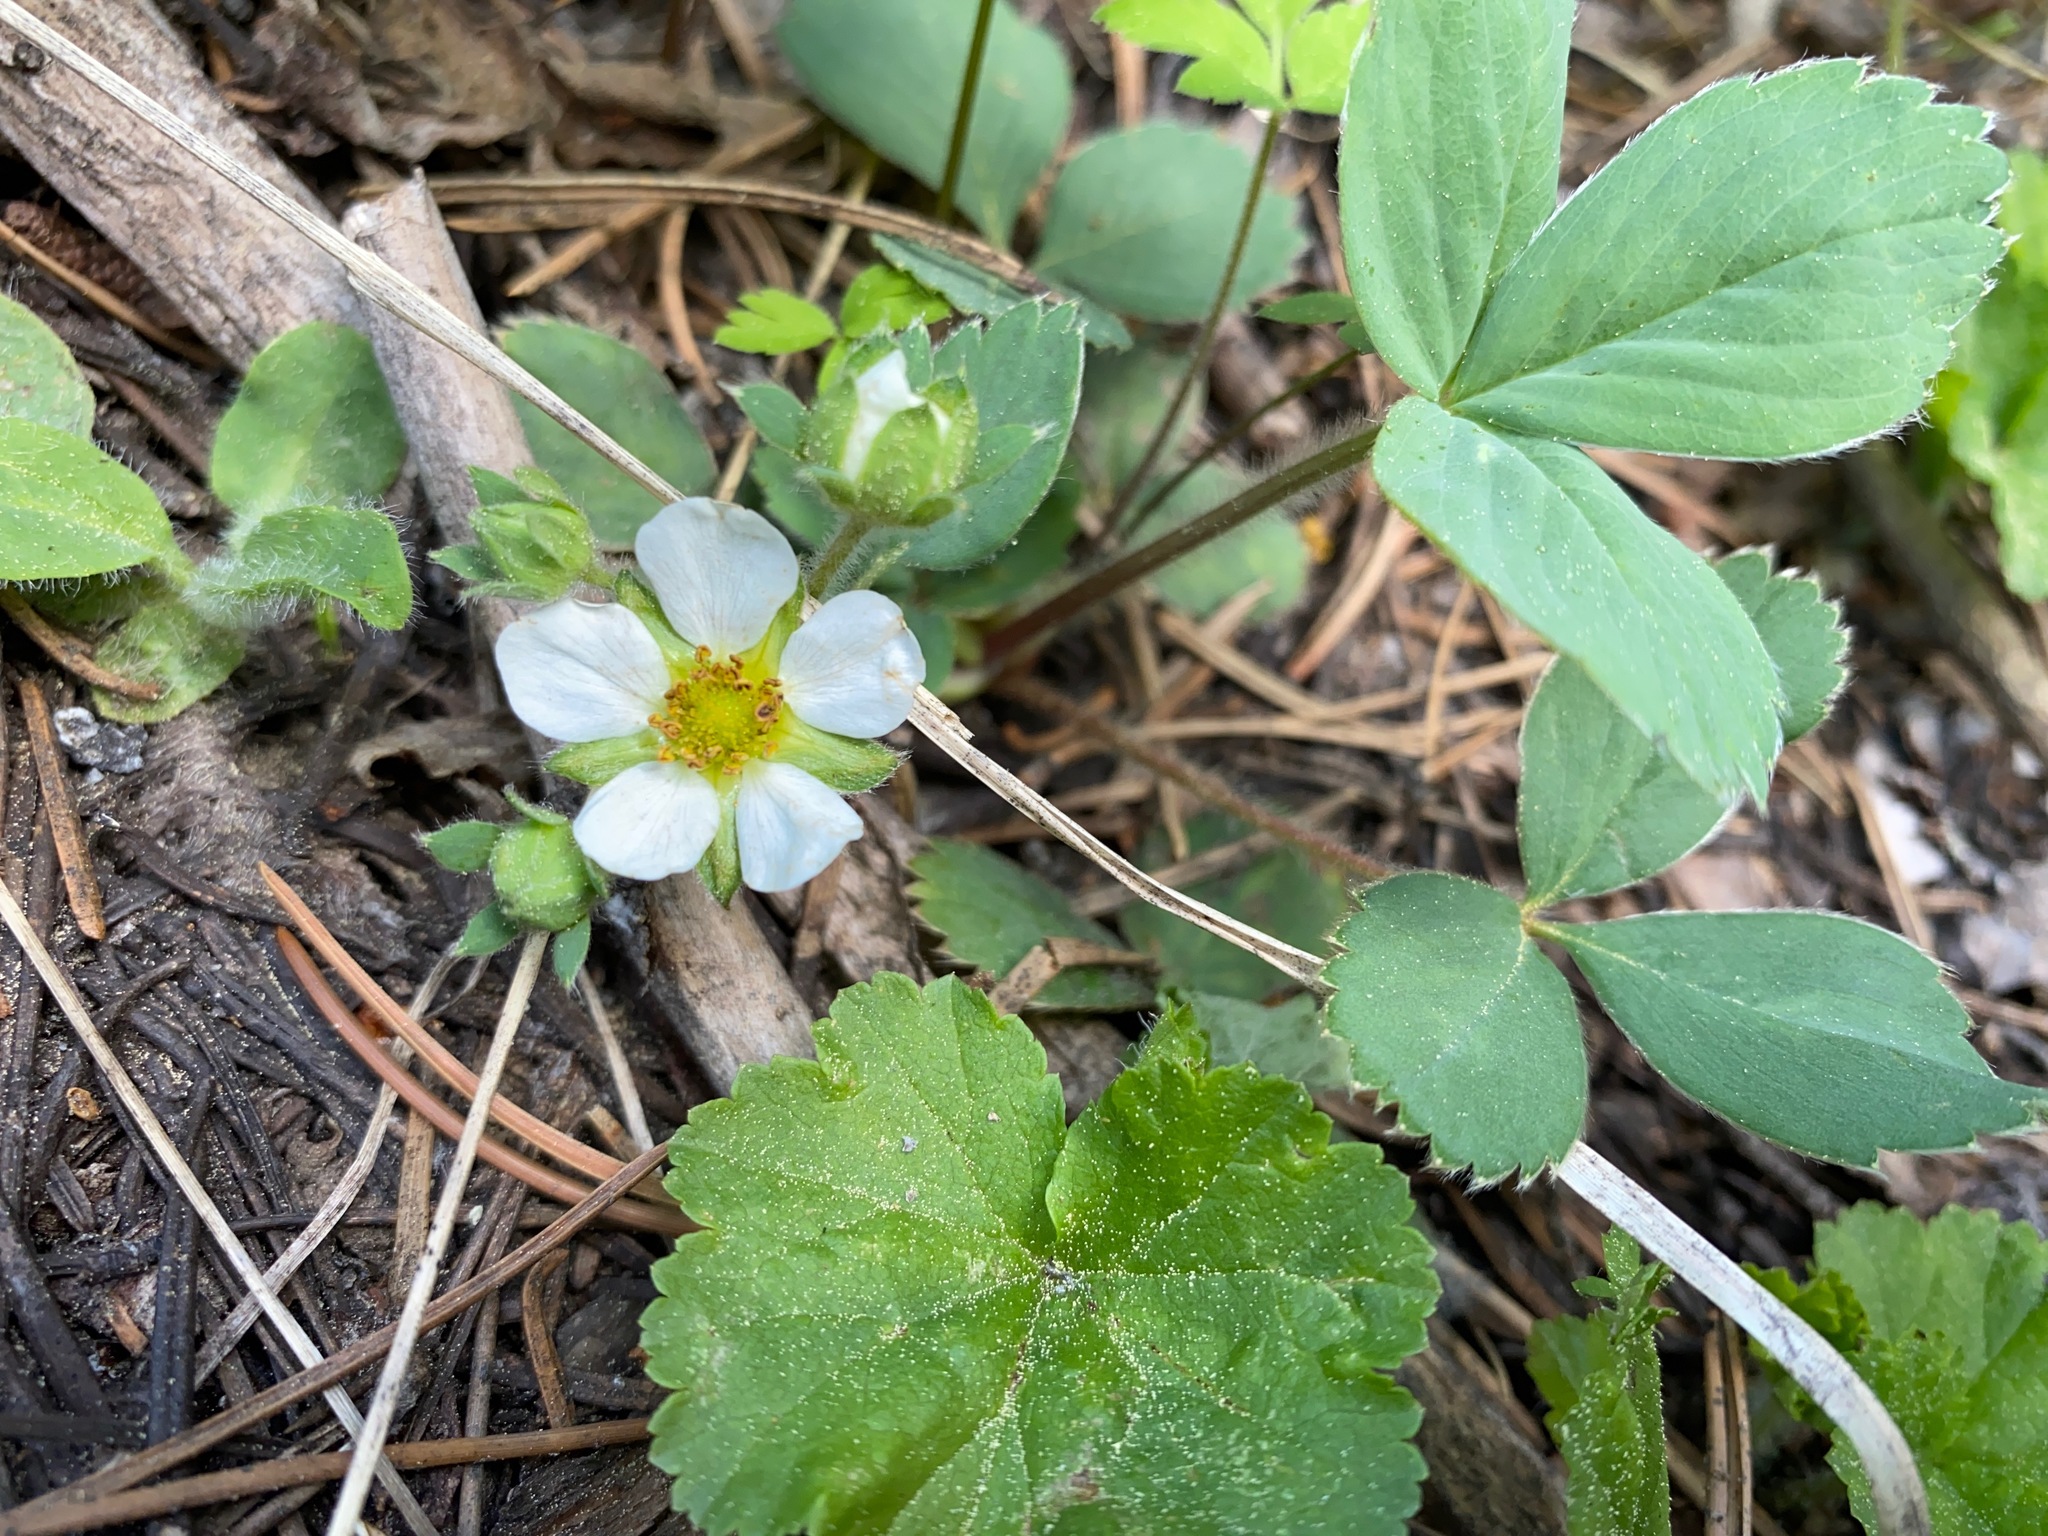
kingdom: Plantae
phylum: Tracheophyta
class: Magnoliopsida
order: Rosales
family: Rosaceae
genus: Fragaria
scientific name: Fragaria virginiana
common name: Thickleaved wild strawberry
